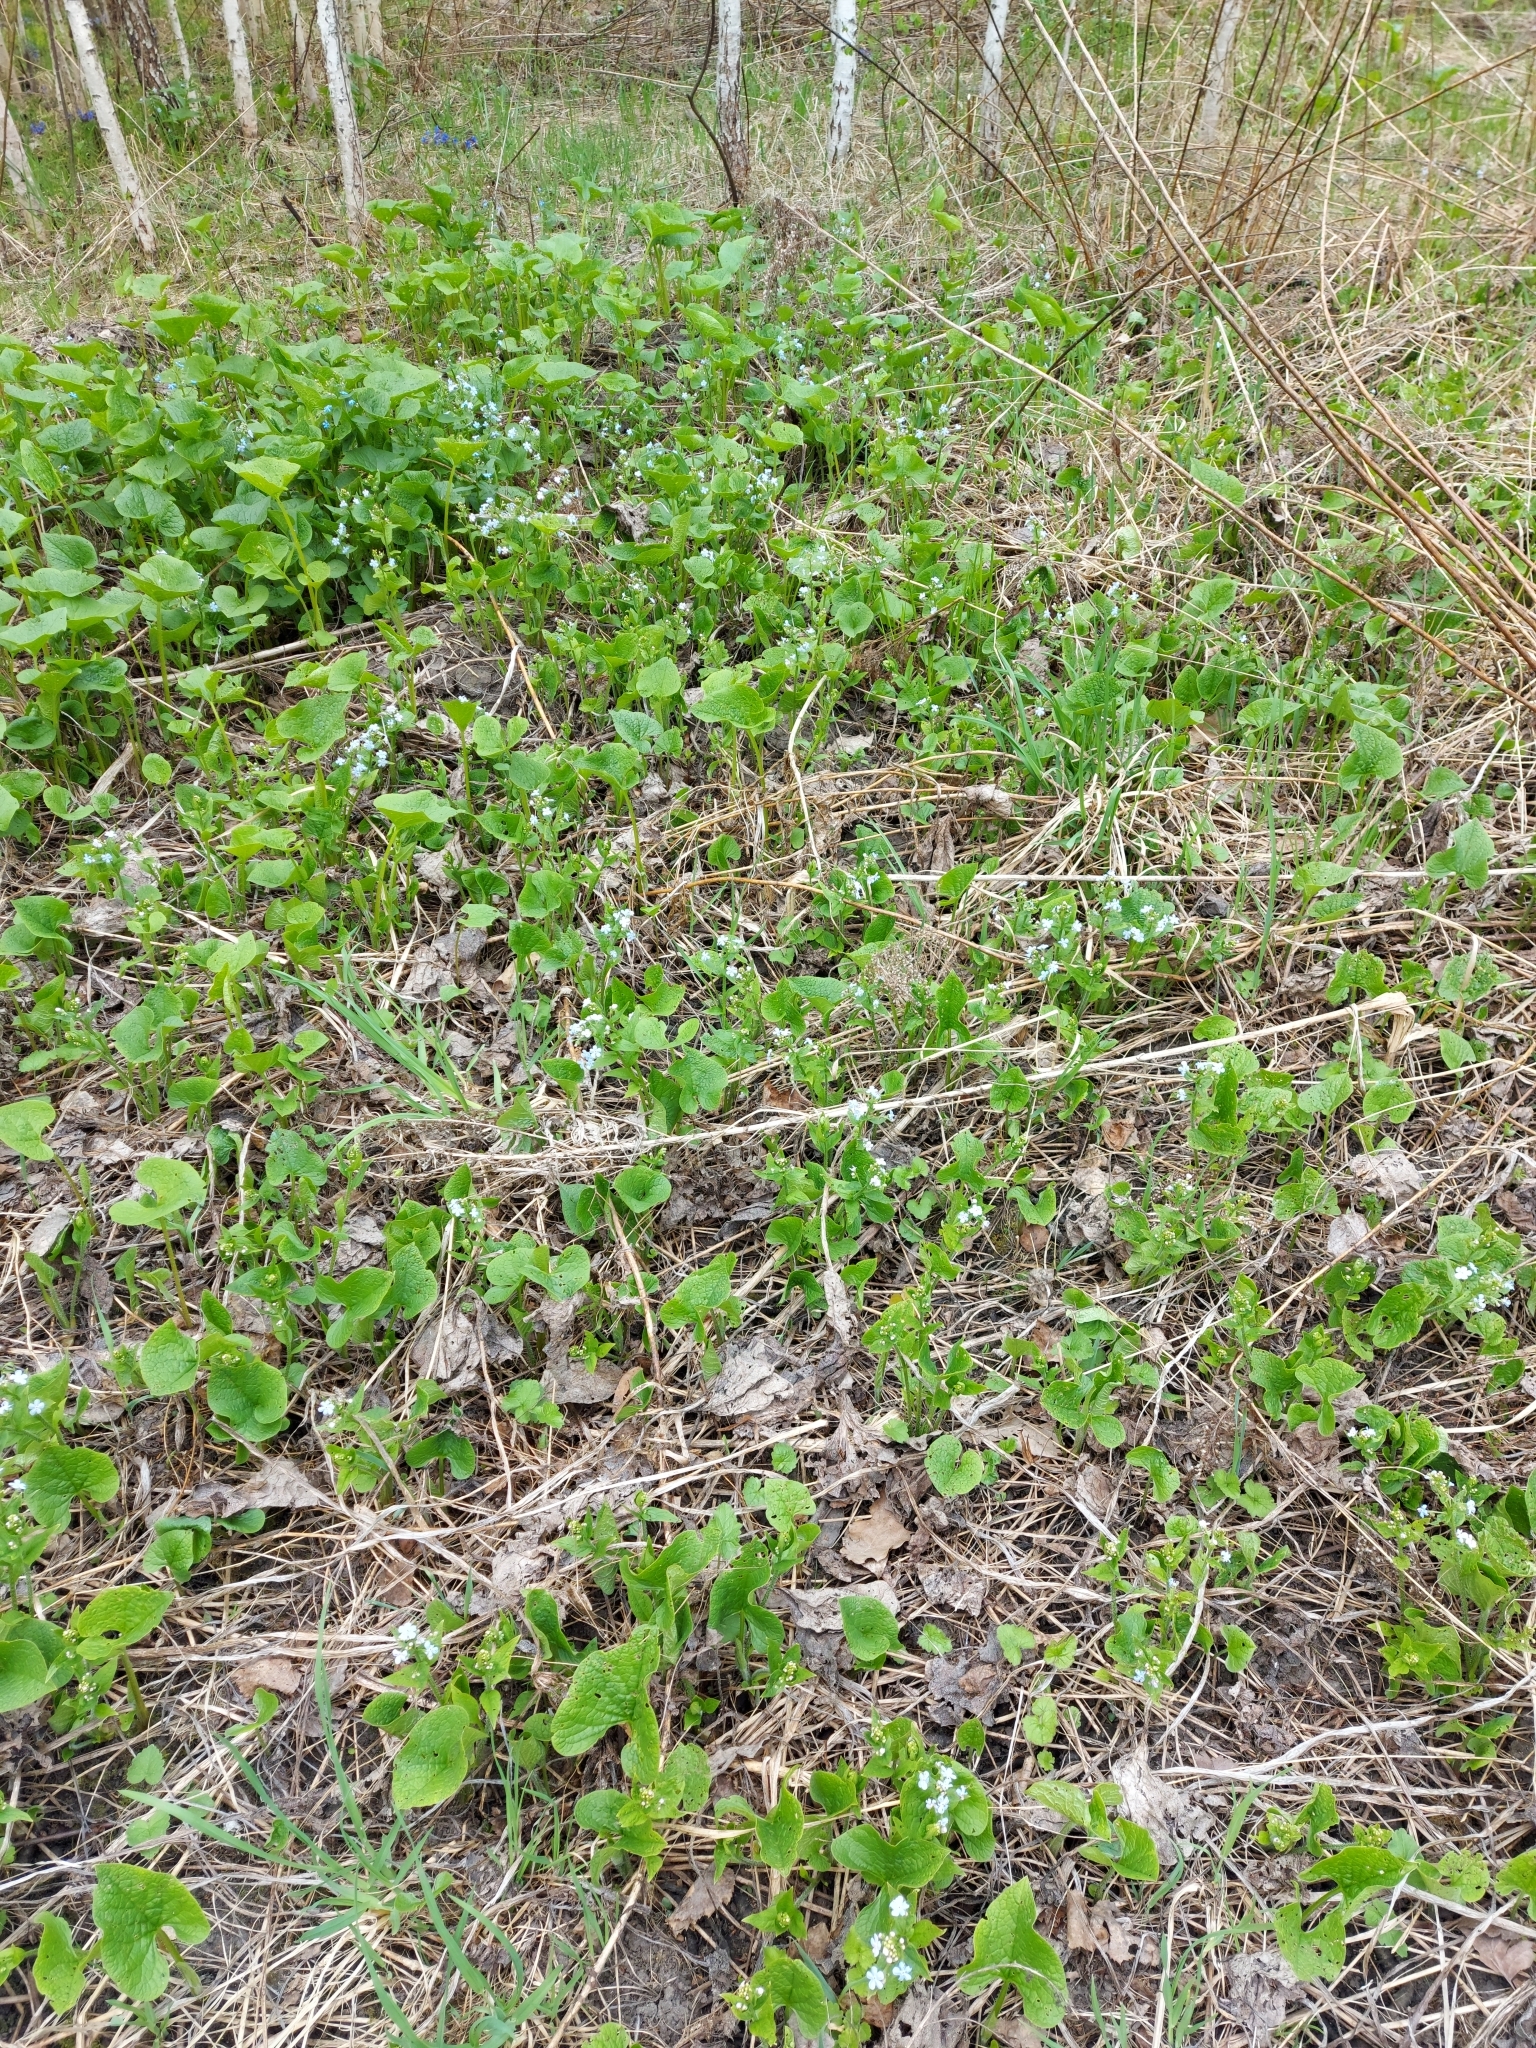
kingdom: Plantae
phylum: Tracheophyta
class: Magnoliopsida
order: Ranunculales
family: Ranunculaceae
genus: Anemone
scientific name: Anemone caerulea
